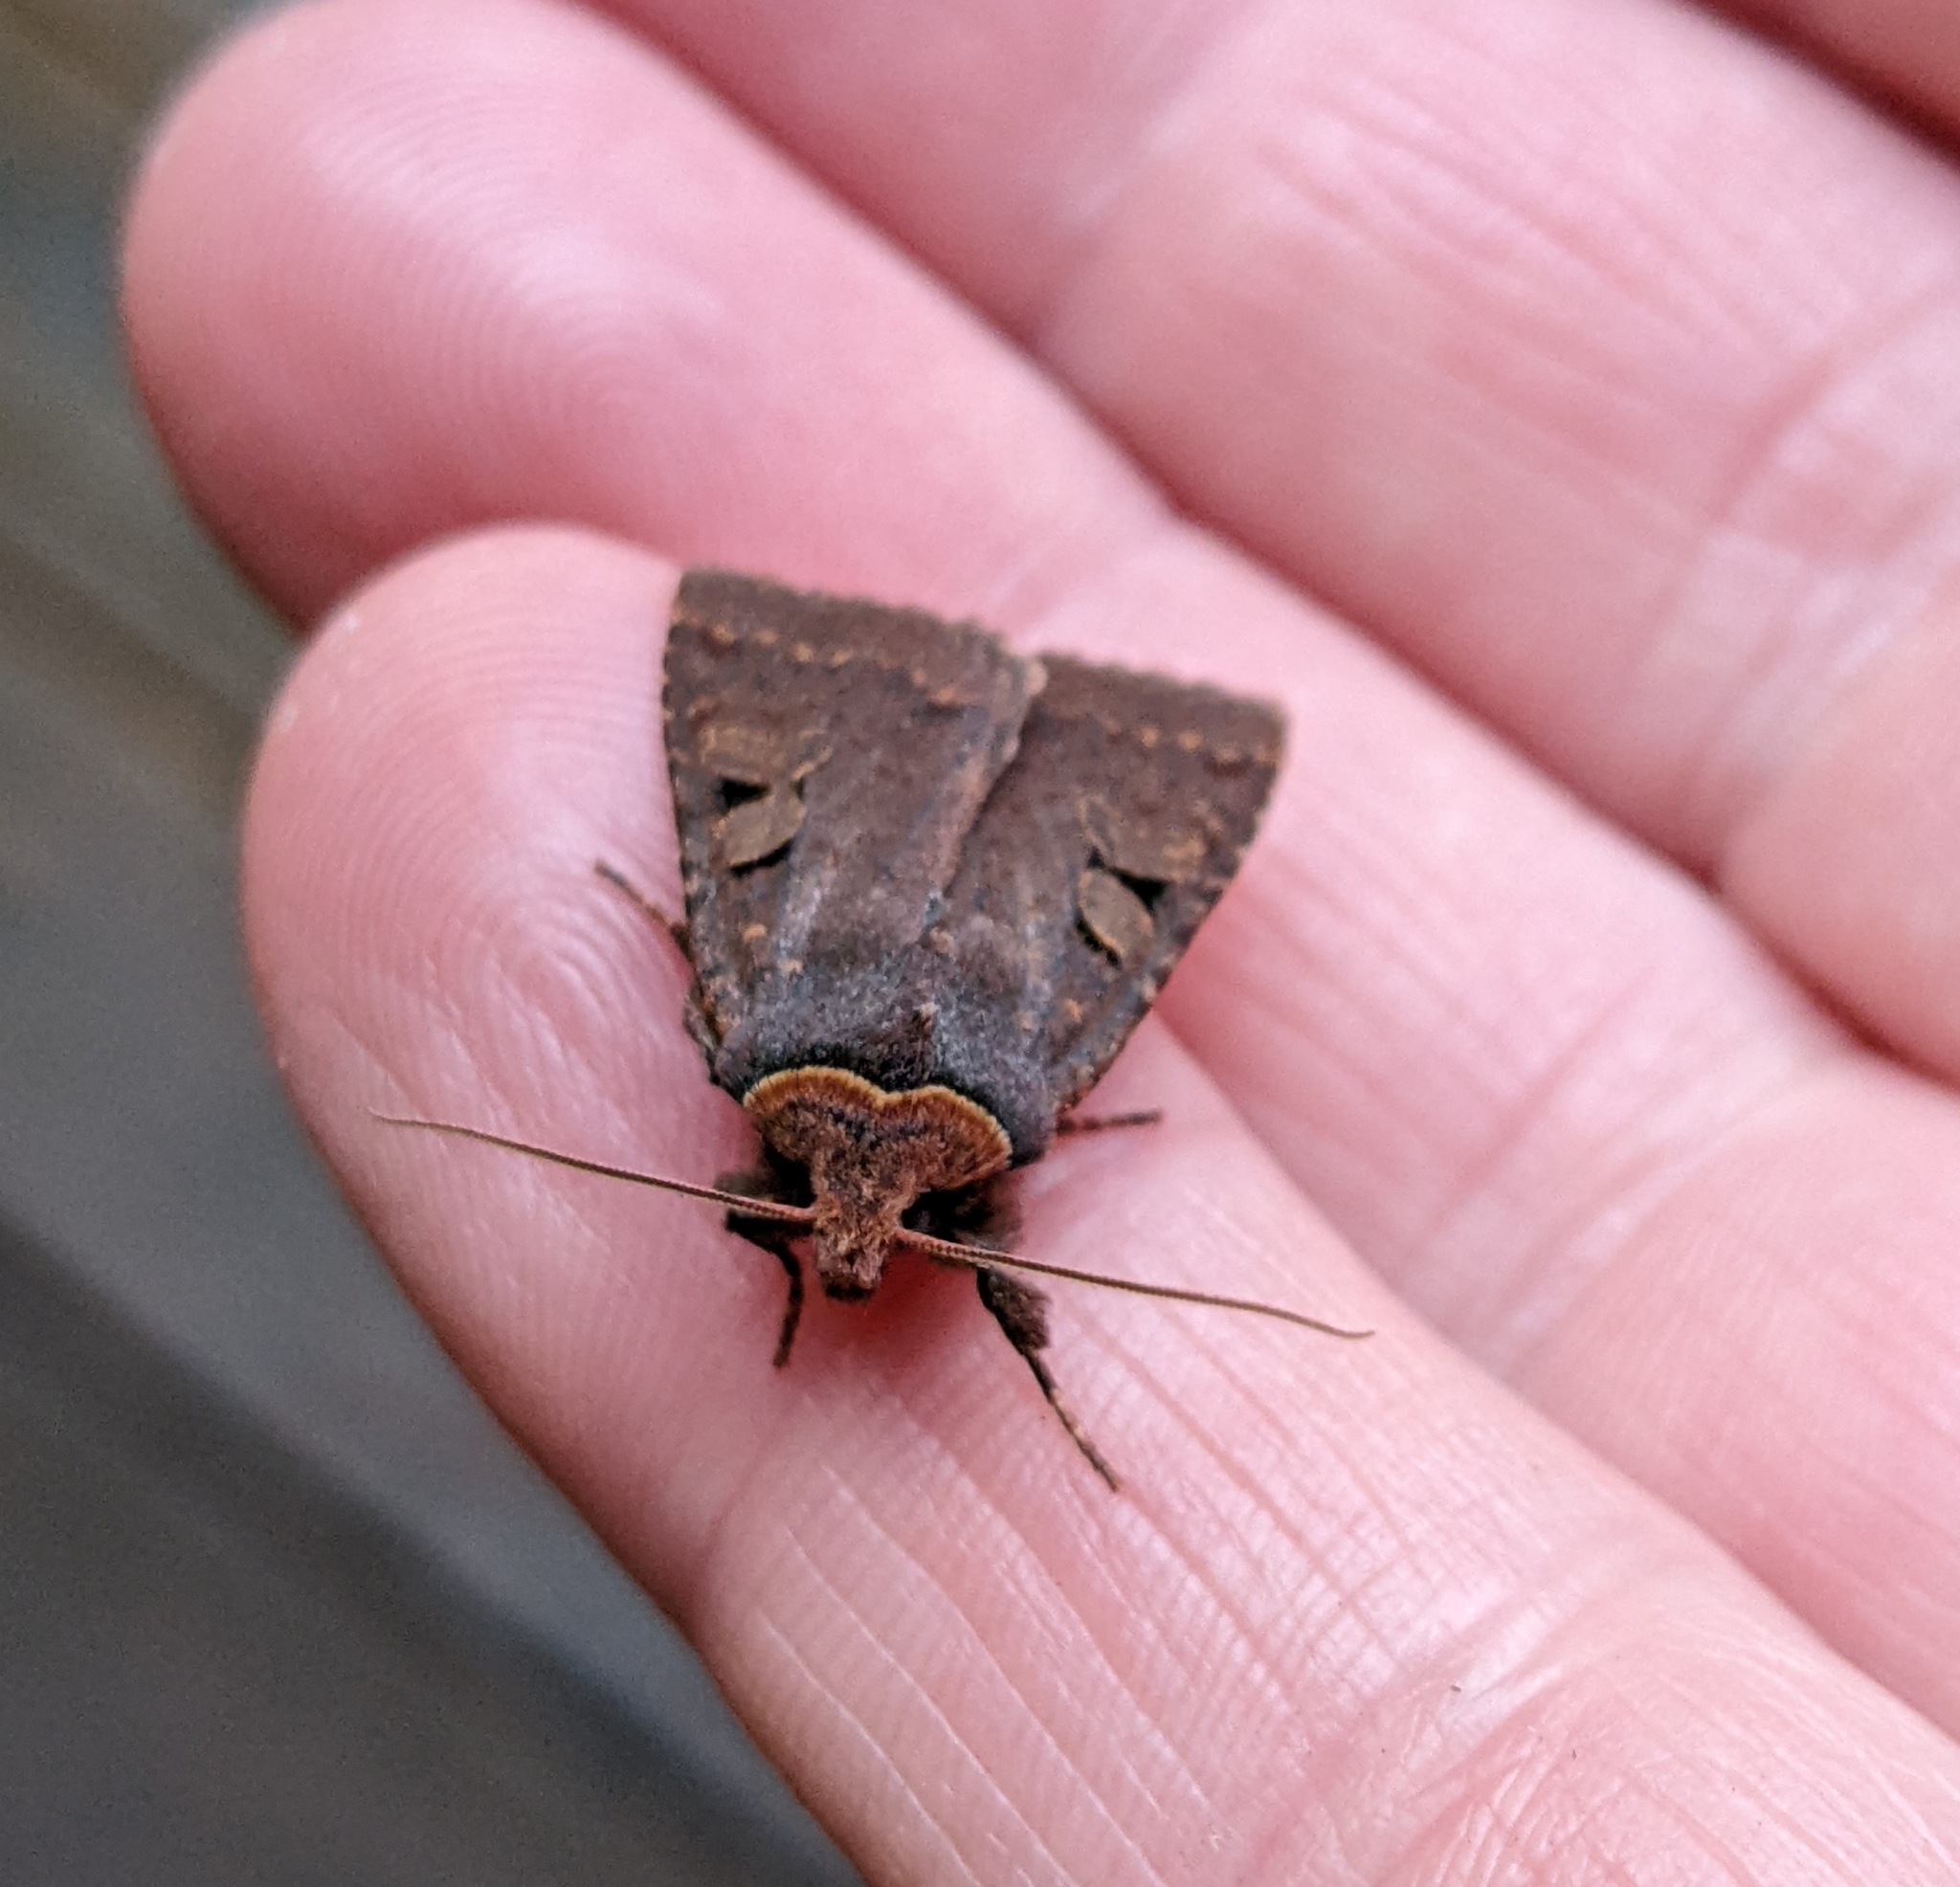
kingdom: Animalia
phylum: Arthropoda
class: Insecta
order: Lepidoptera
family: Noctuidae
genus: Orthosia
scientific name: Orthosia praeses
